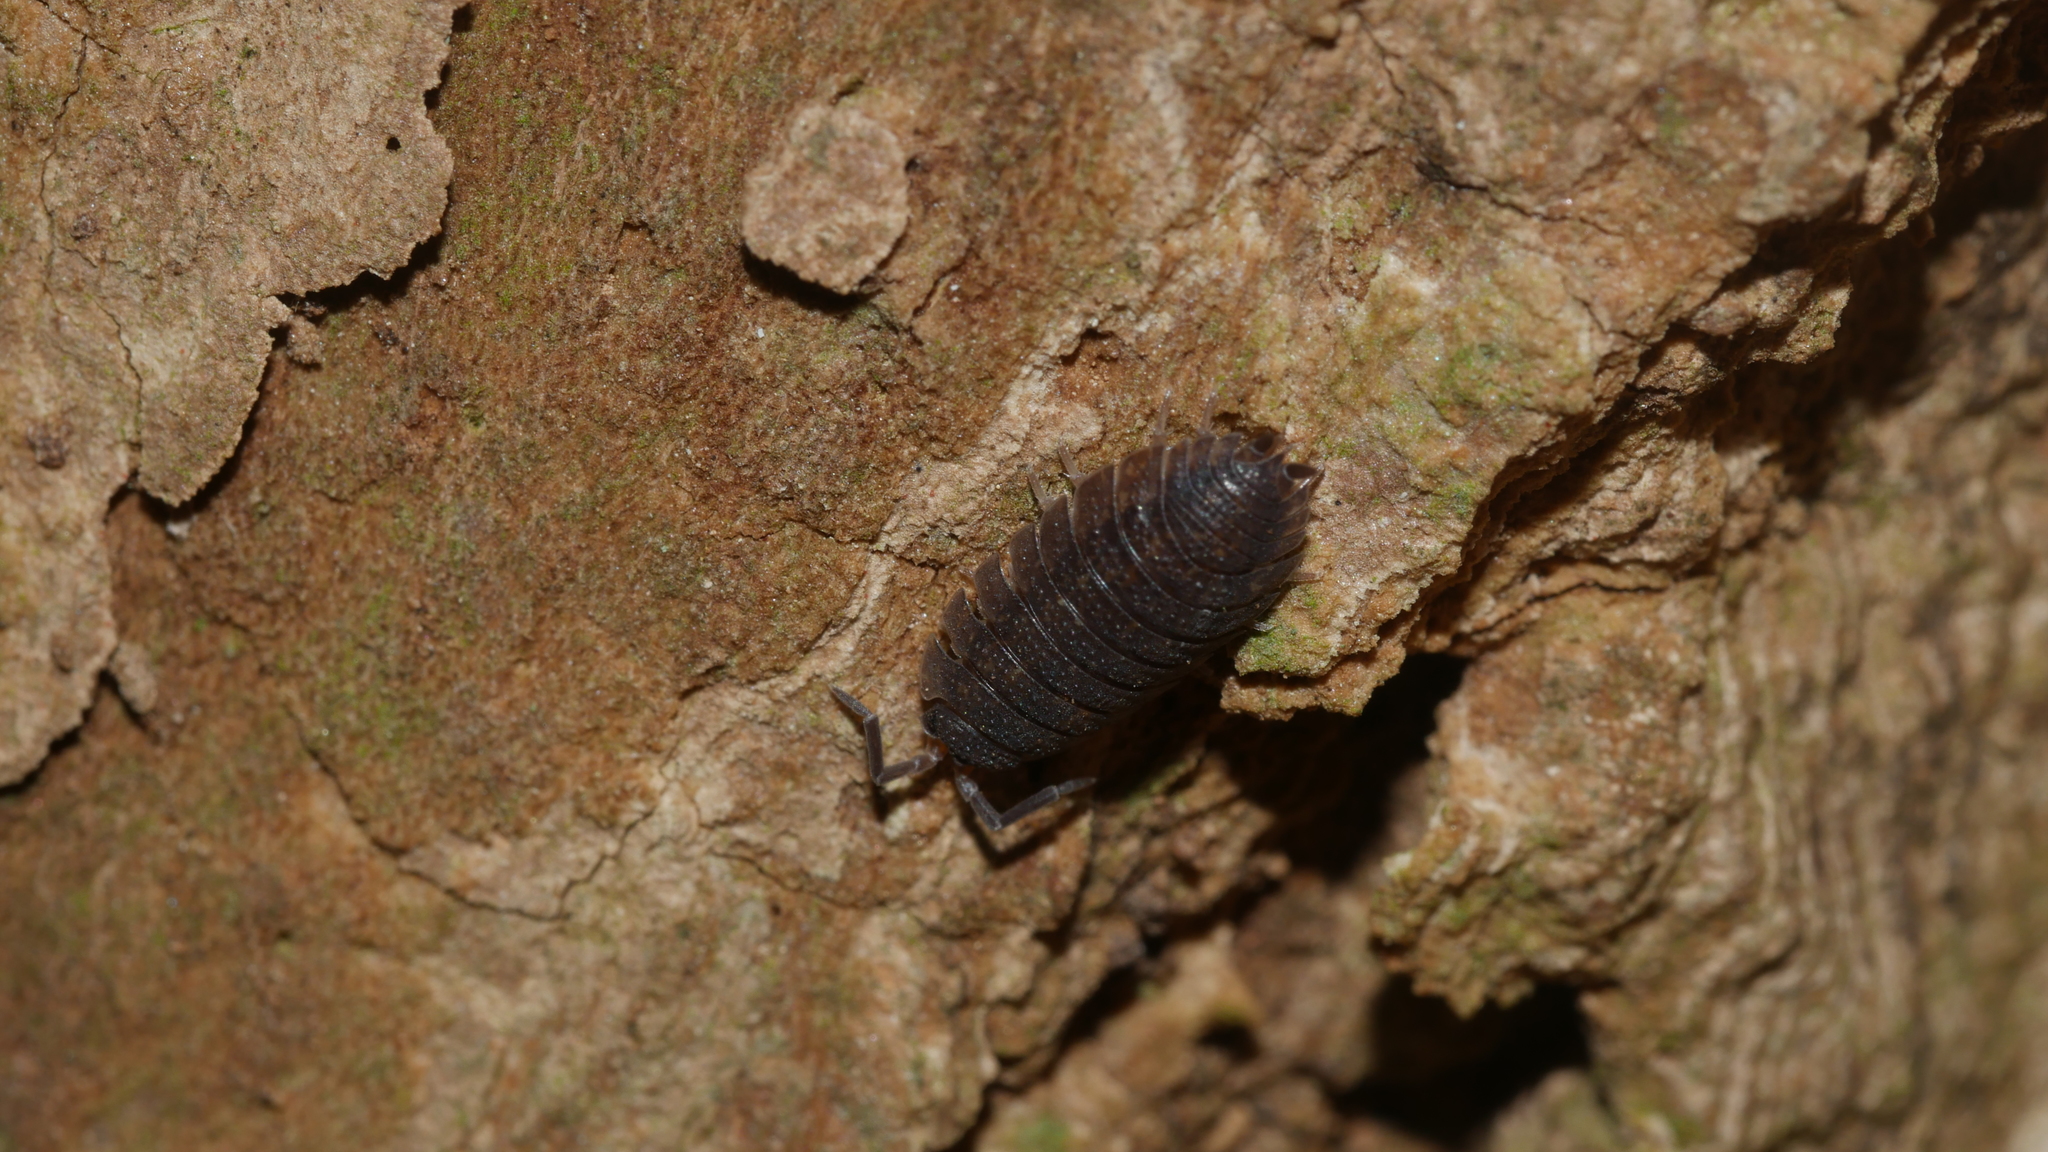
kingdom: Animalia
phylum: Arthropoda
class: Malacostraca
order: Isopoda
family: Porcellionidae
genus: Porcellio
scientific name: Porcellio scaber
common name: Common rough woodlouse
